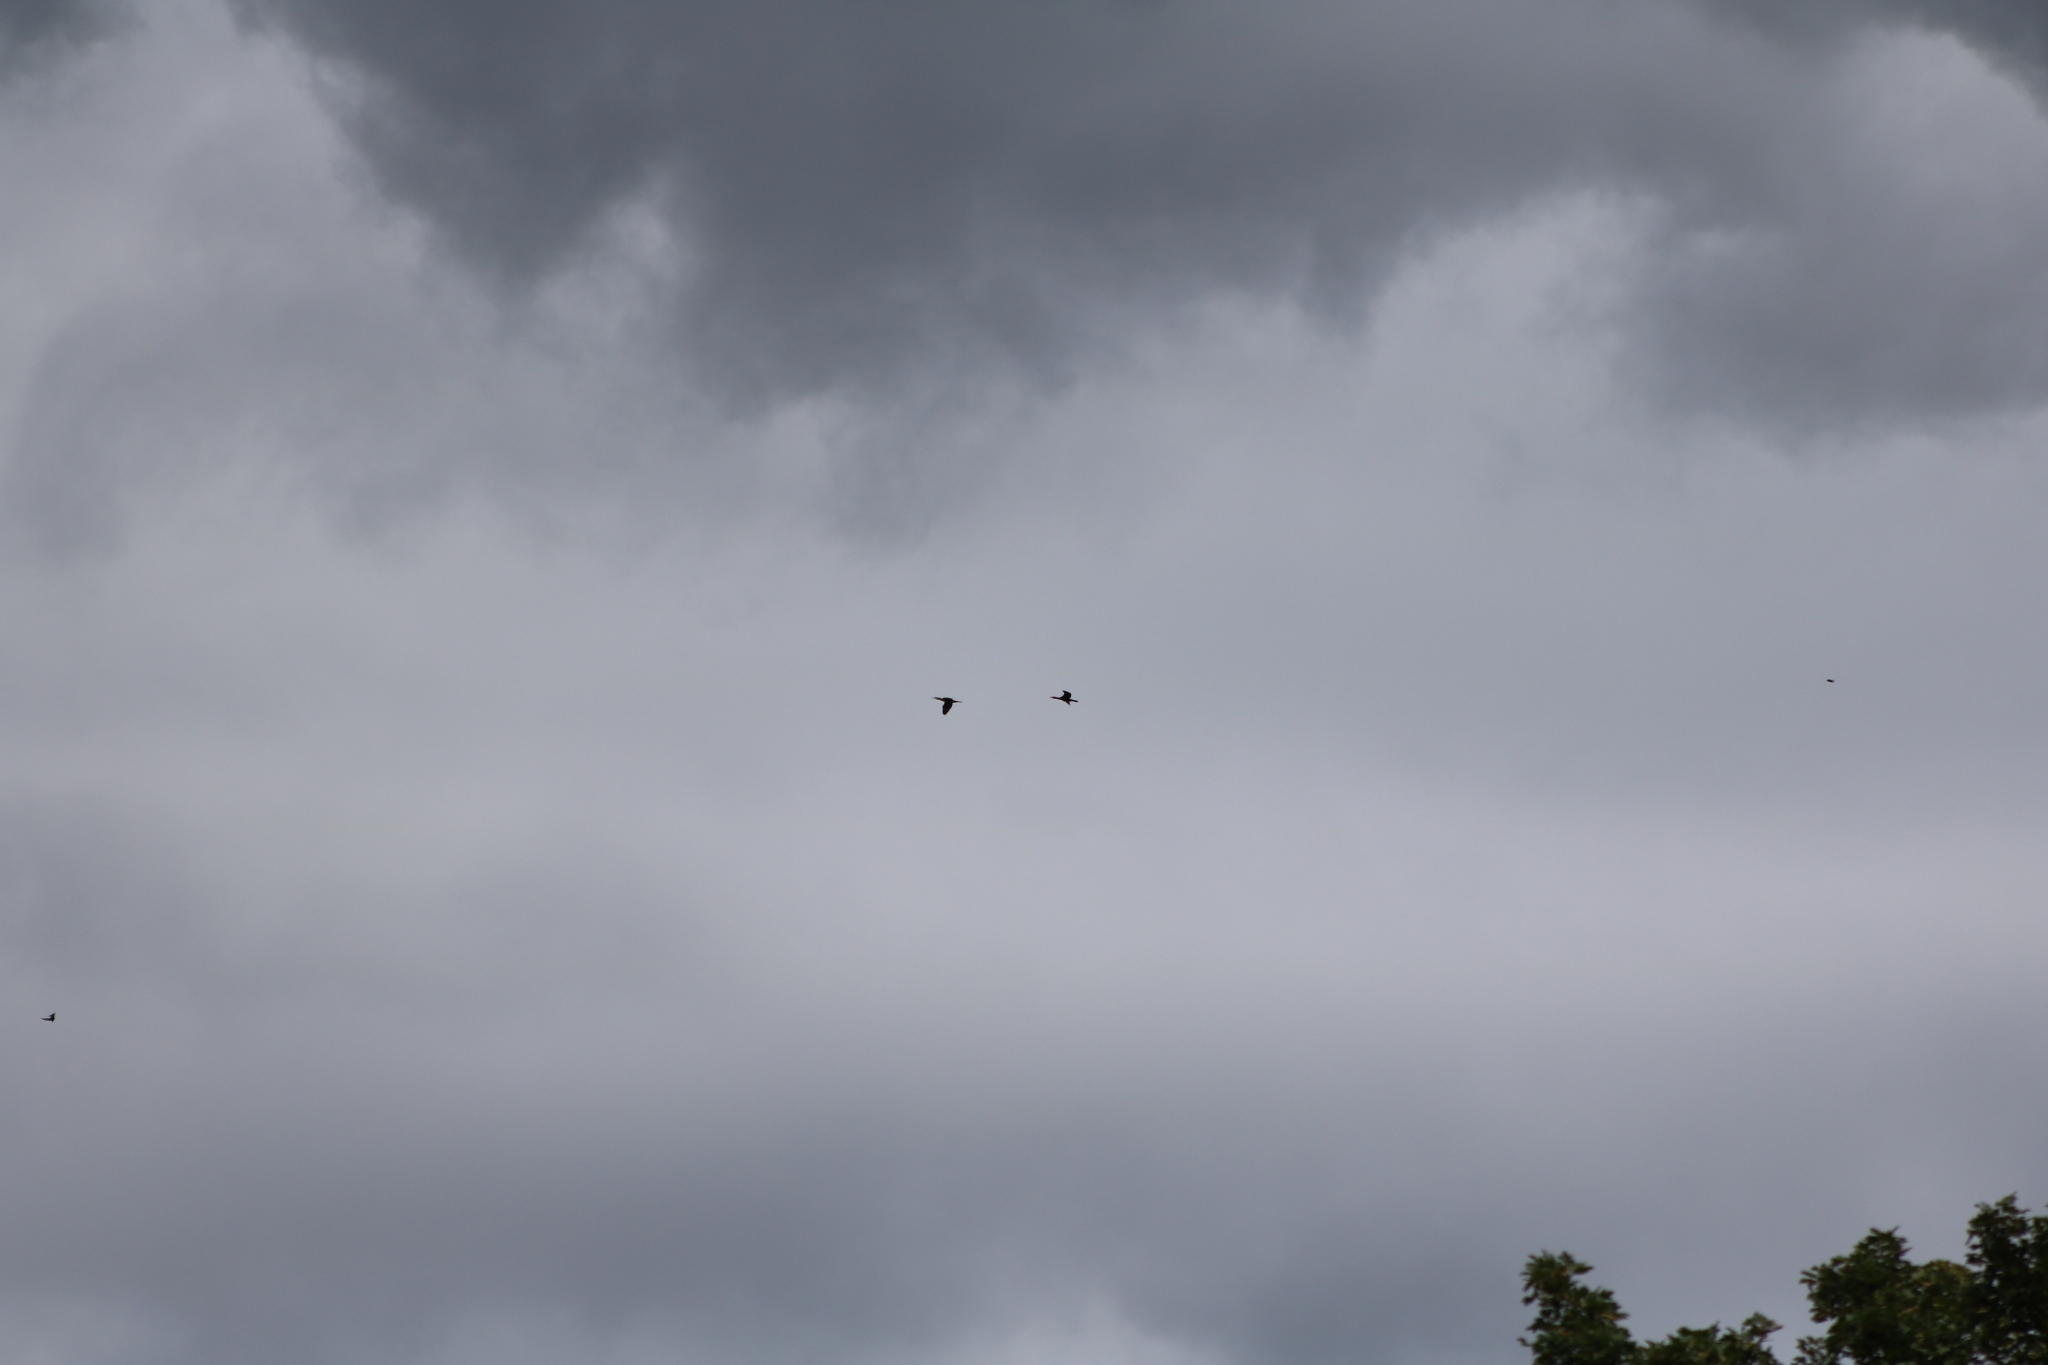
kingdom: Animalia
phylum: Chordata
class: Aves
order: Suliformes
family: Phalacrocoracidae
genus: Phalacrocorax
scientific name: Phalacrocorax carbo
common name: Great cormorant
